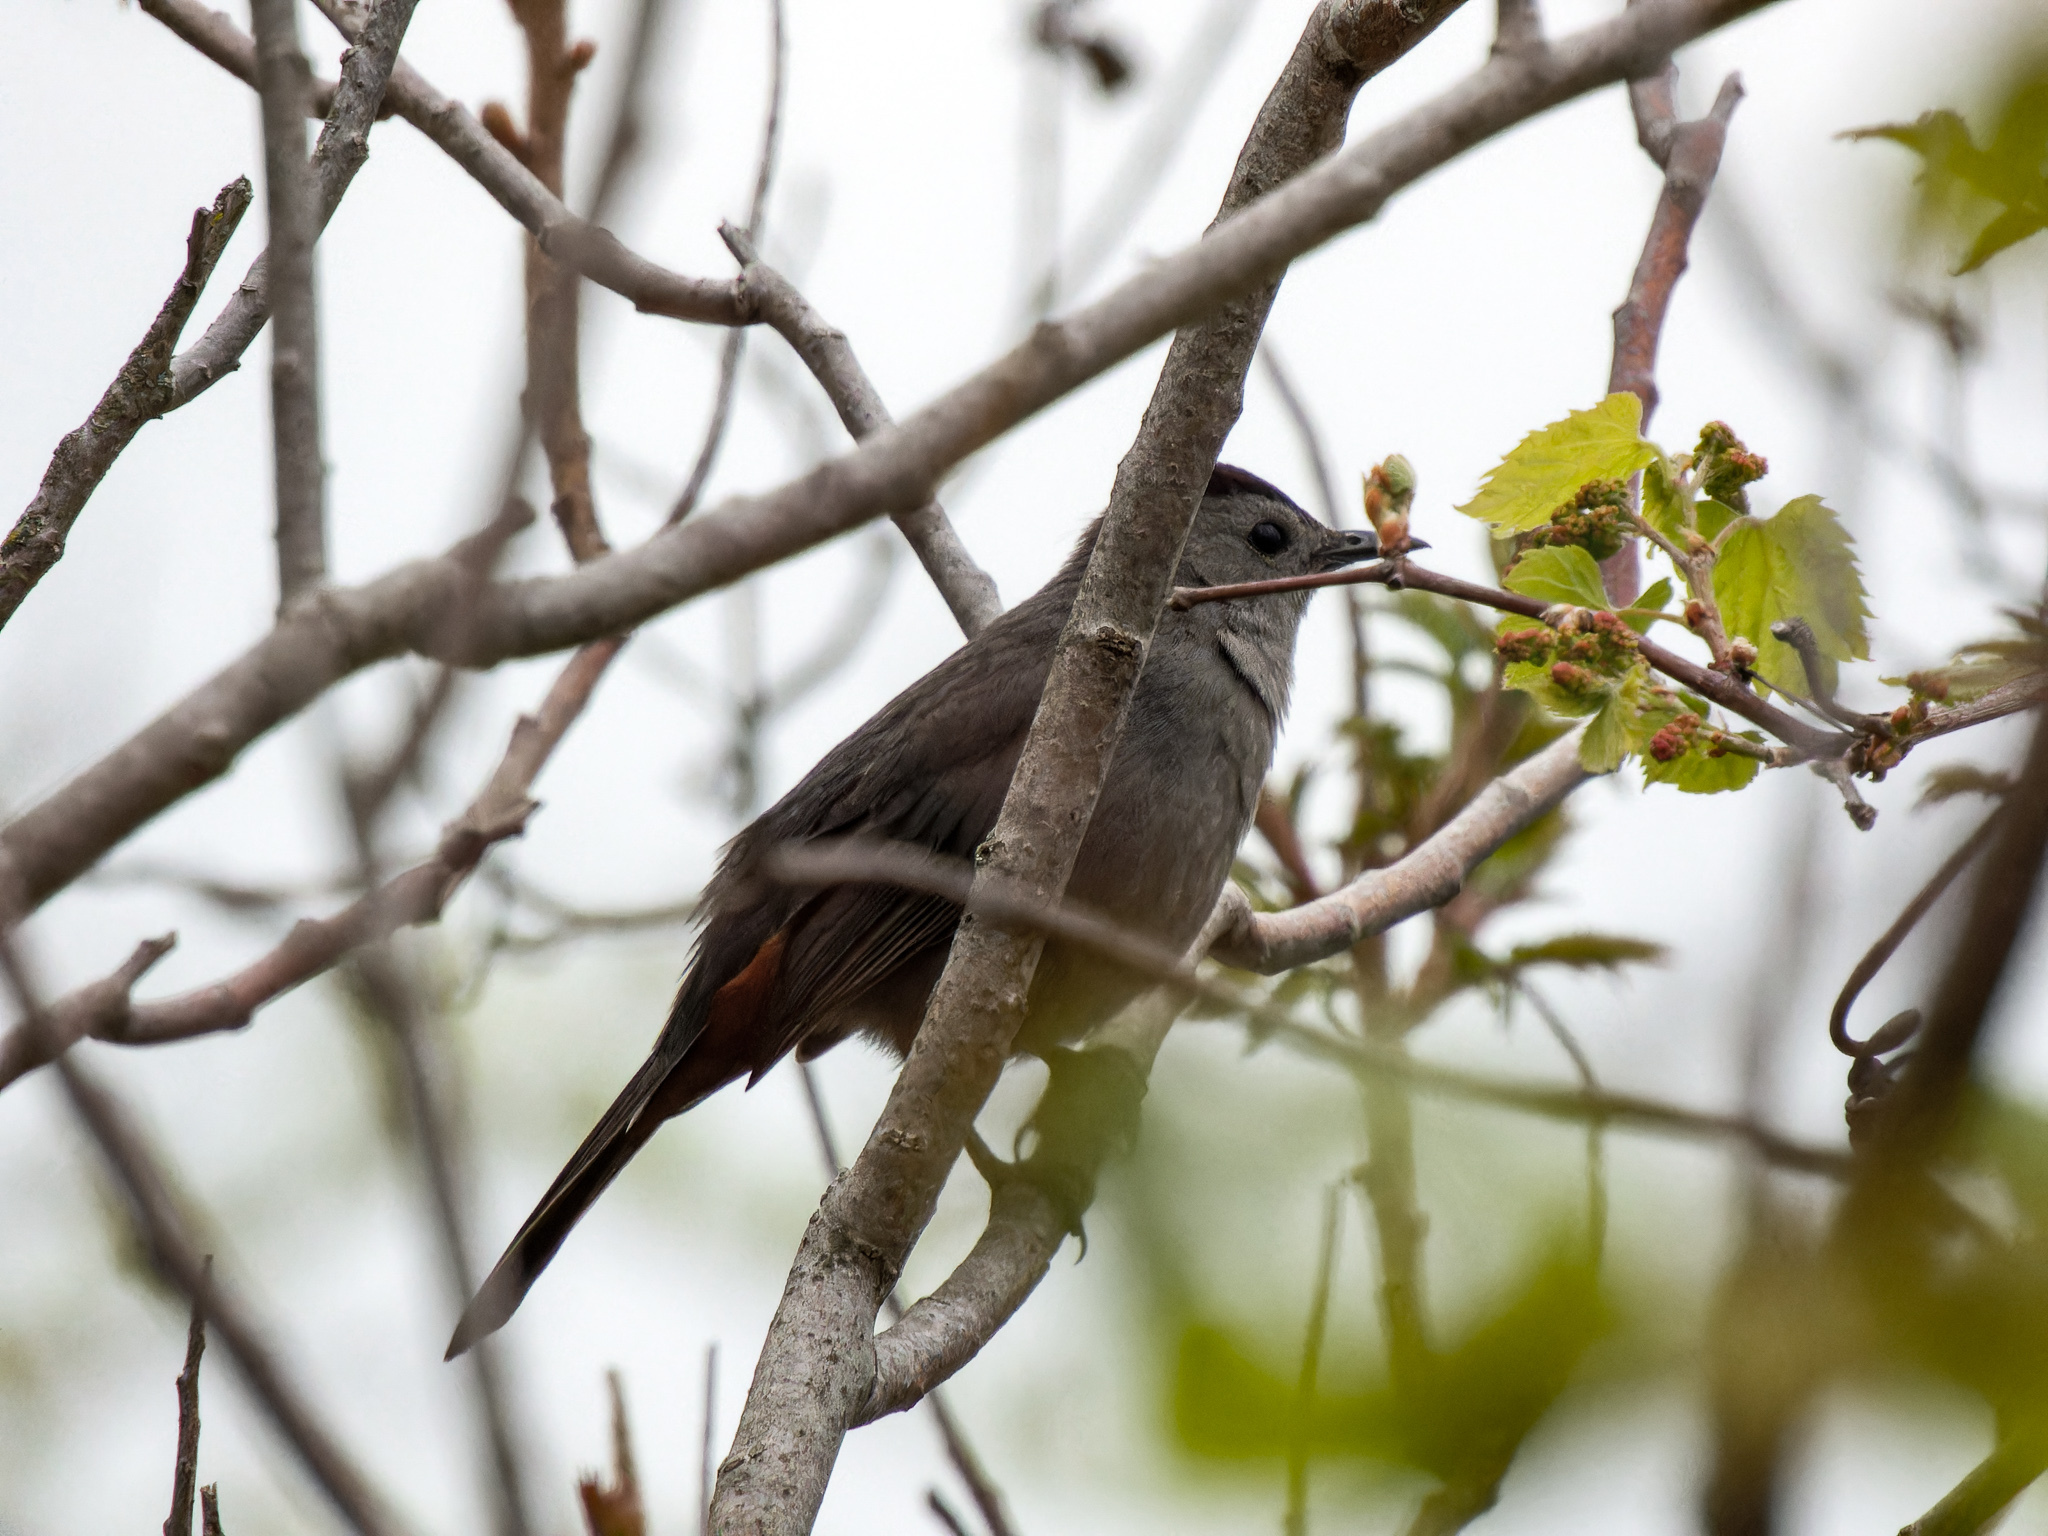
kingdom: Animalia
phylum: Chordata
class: Aves
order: Passeriformes
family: Mimidae
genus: Dumetella
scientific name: Dumetella carolinensis
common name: Gray catbird
